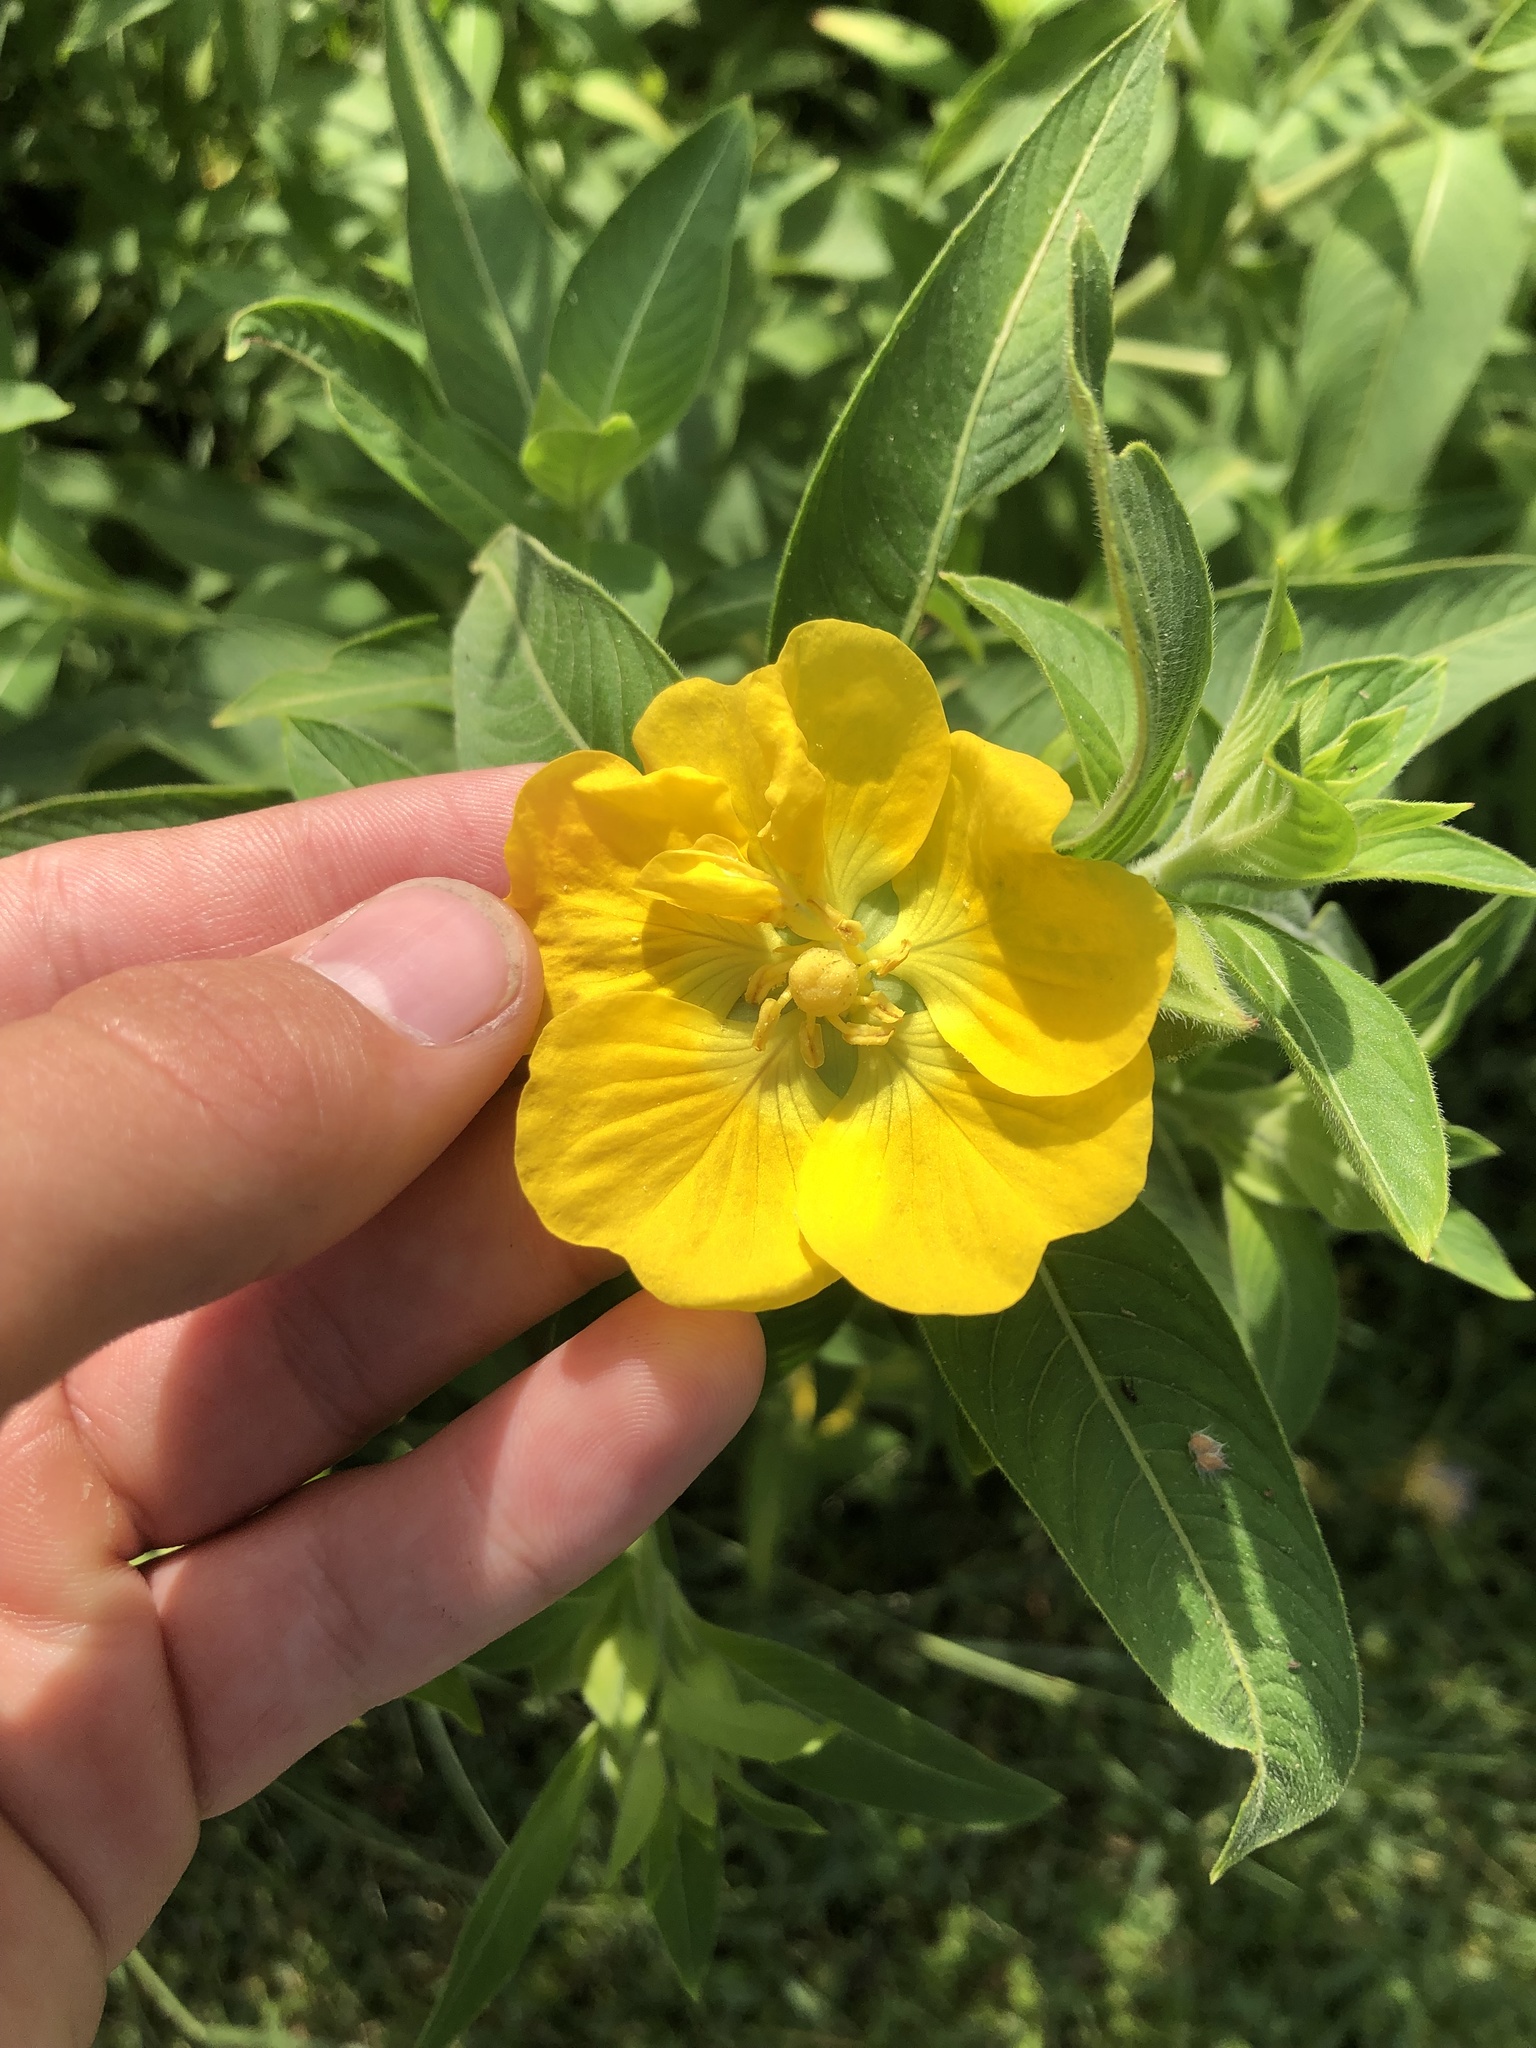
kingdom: Plantae
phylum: Tracheophyta
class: Magnoliopsida
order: Myrtales
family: Onagraceae
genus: Ludwigia
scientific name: Ludwigia peruviana
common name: Peruvian primrose-willow
